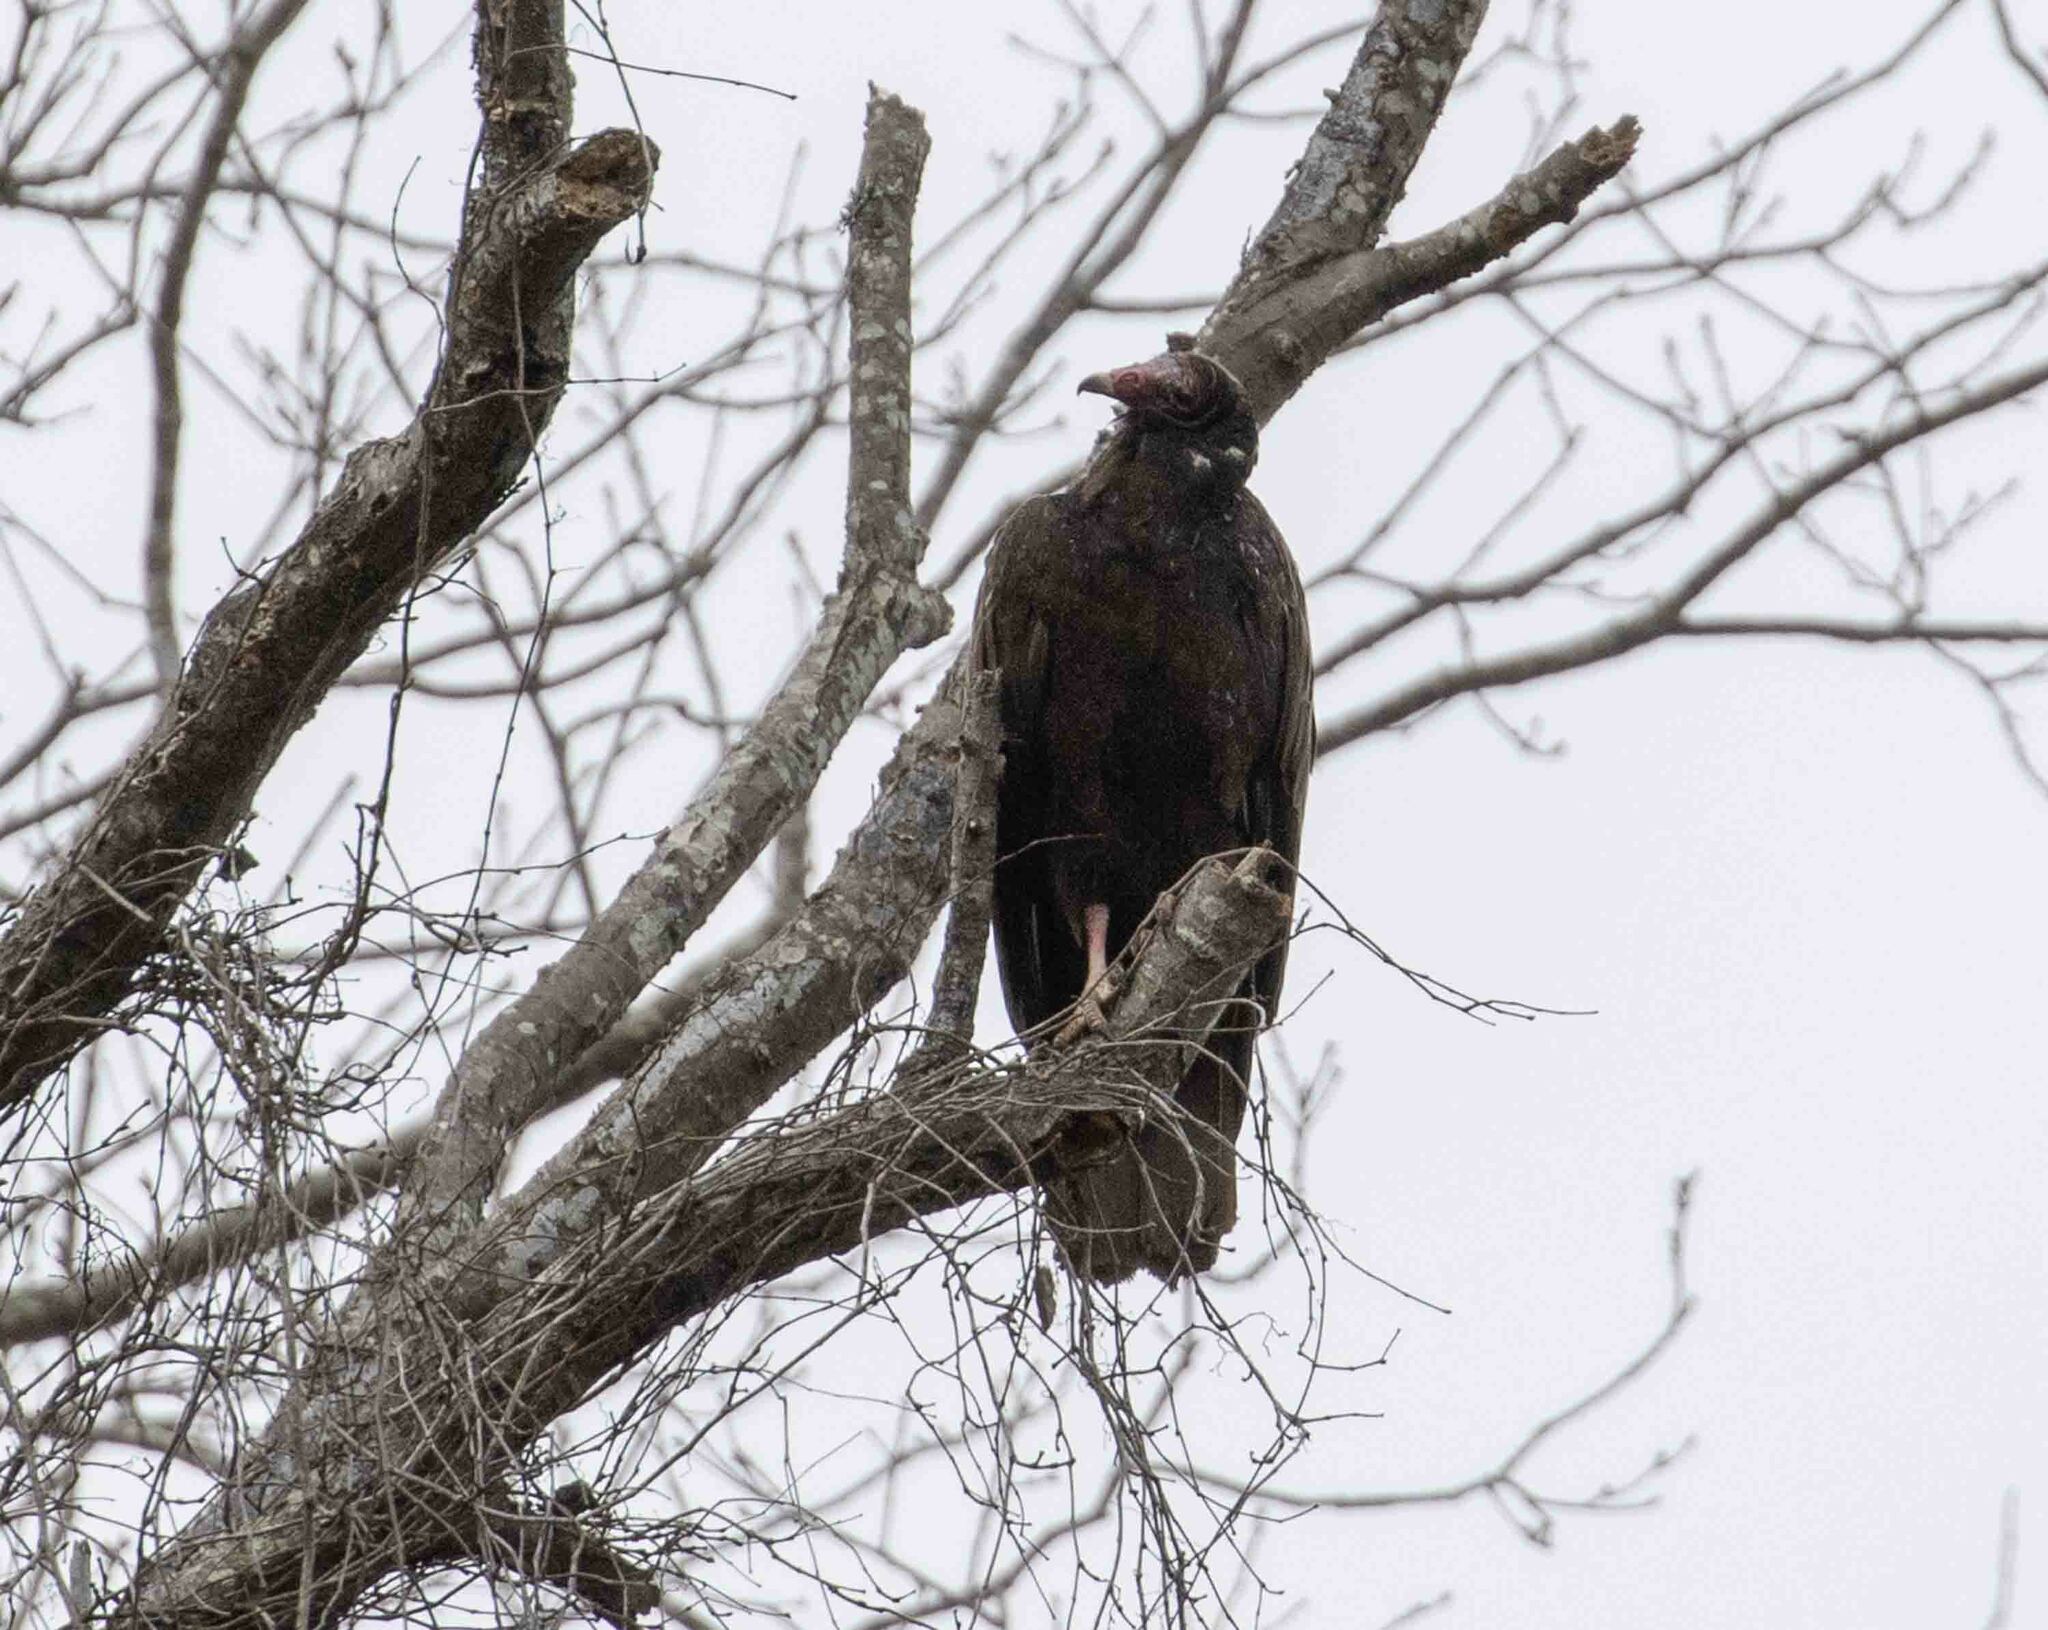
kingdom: Animalia
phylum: Chordata
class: Aves
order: Accipitriformes
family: Cathartidae
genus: Cathartes
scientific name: Cathartes aura
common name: Turkey vulture
